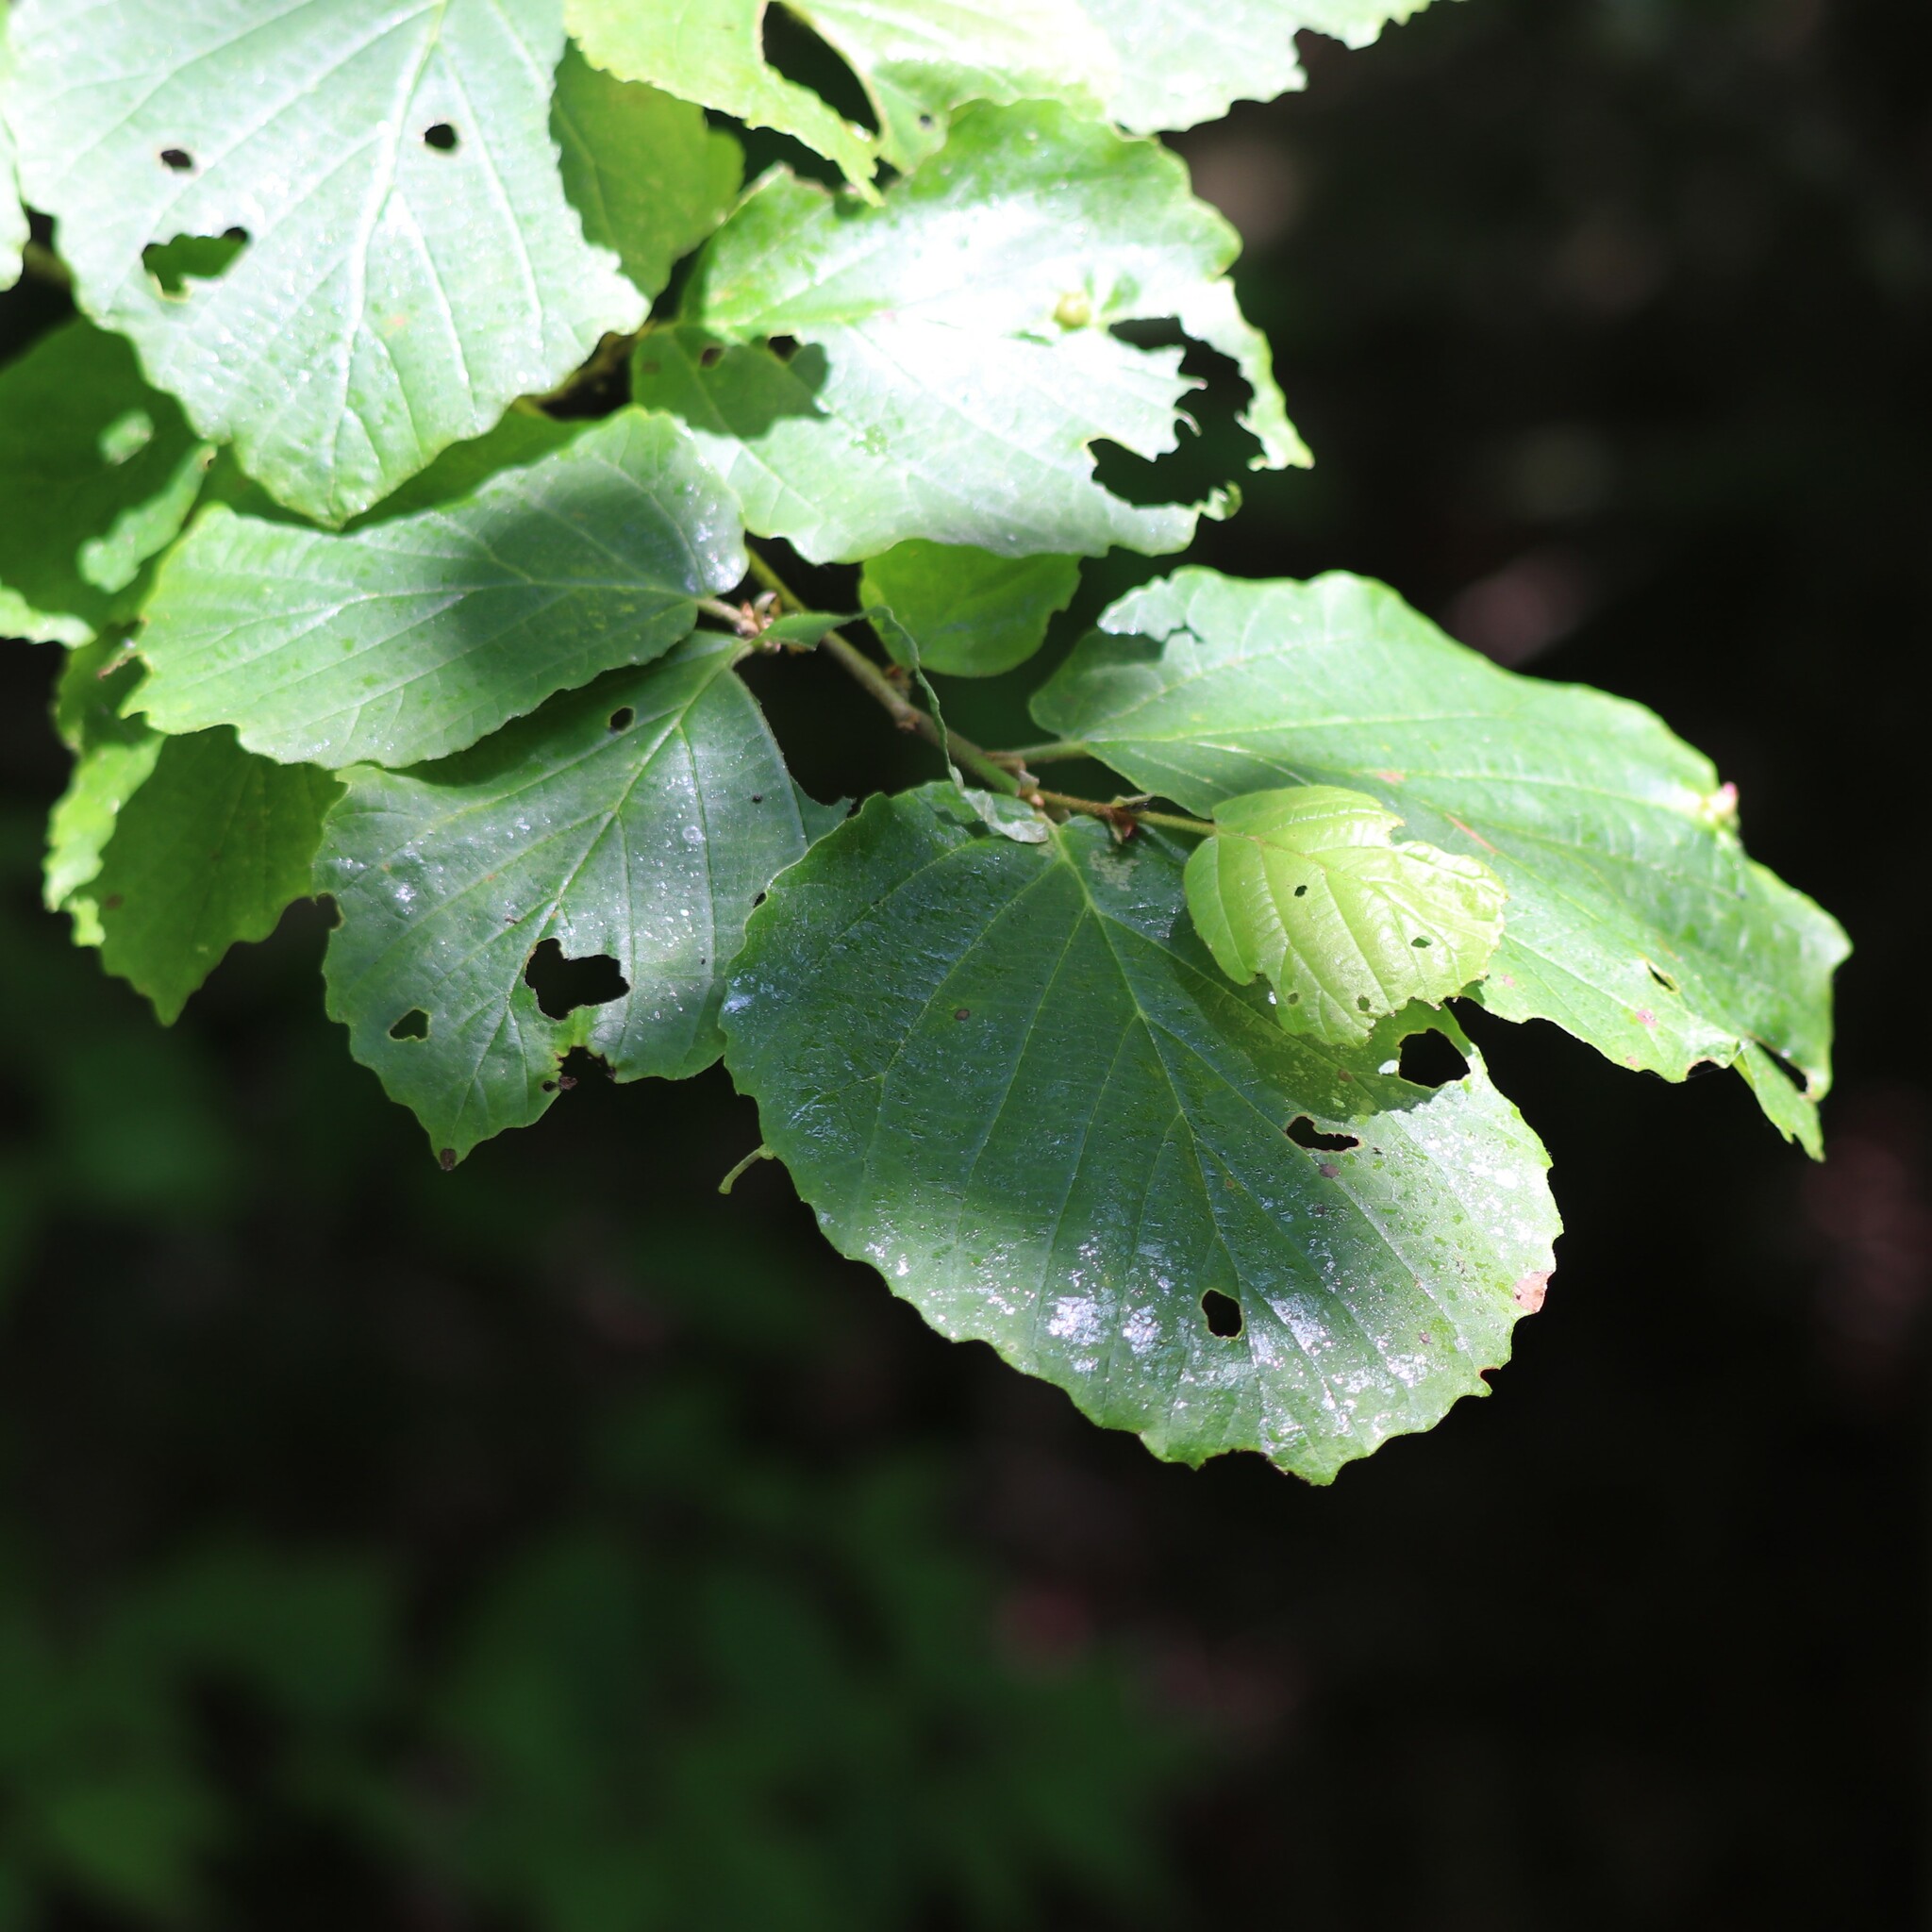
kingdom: Plantae
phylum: Tracheophyta
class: Magnoliopsida
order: Saxifragales
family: Hamamelidaceae
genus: Hamamelis
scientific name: Hamamelis virginiana
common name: Witch-hazel
